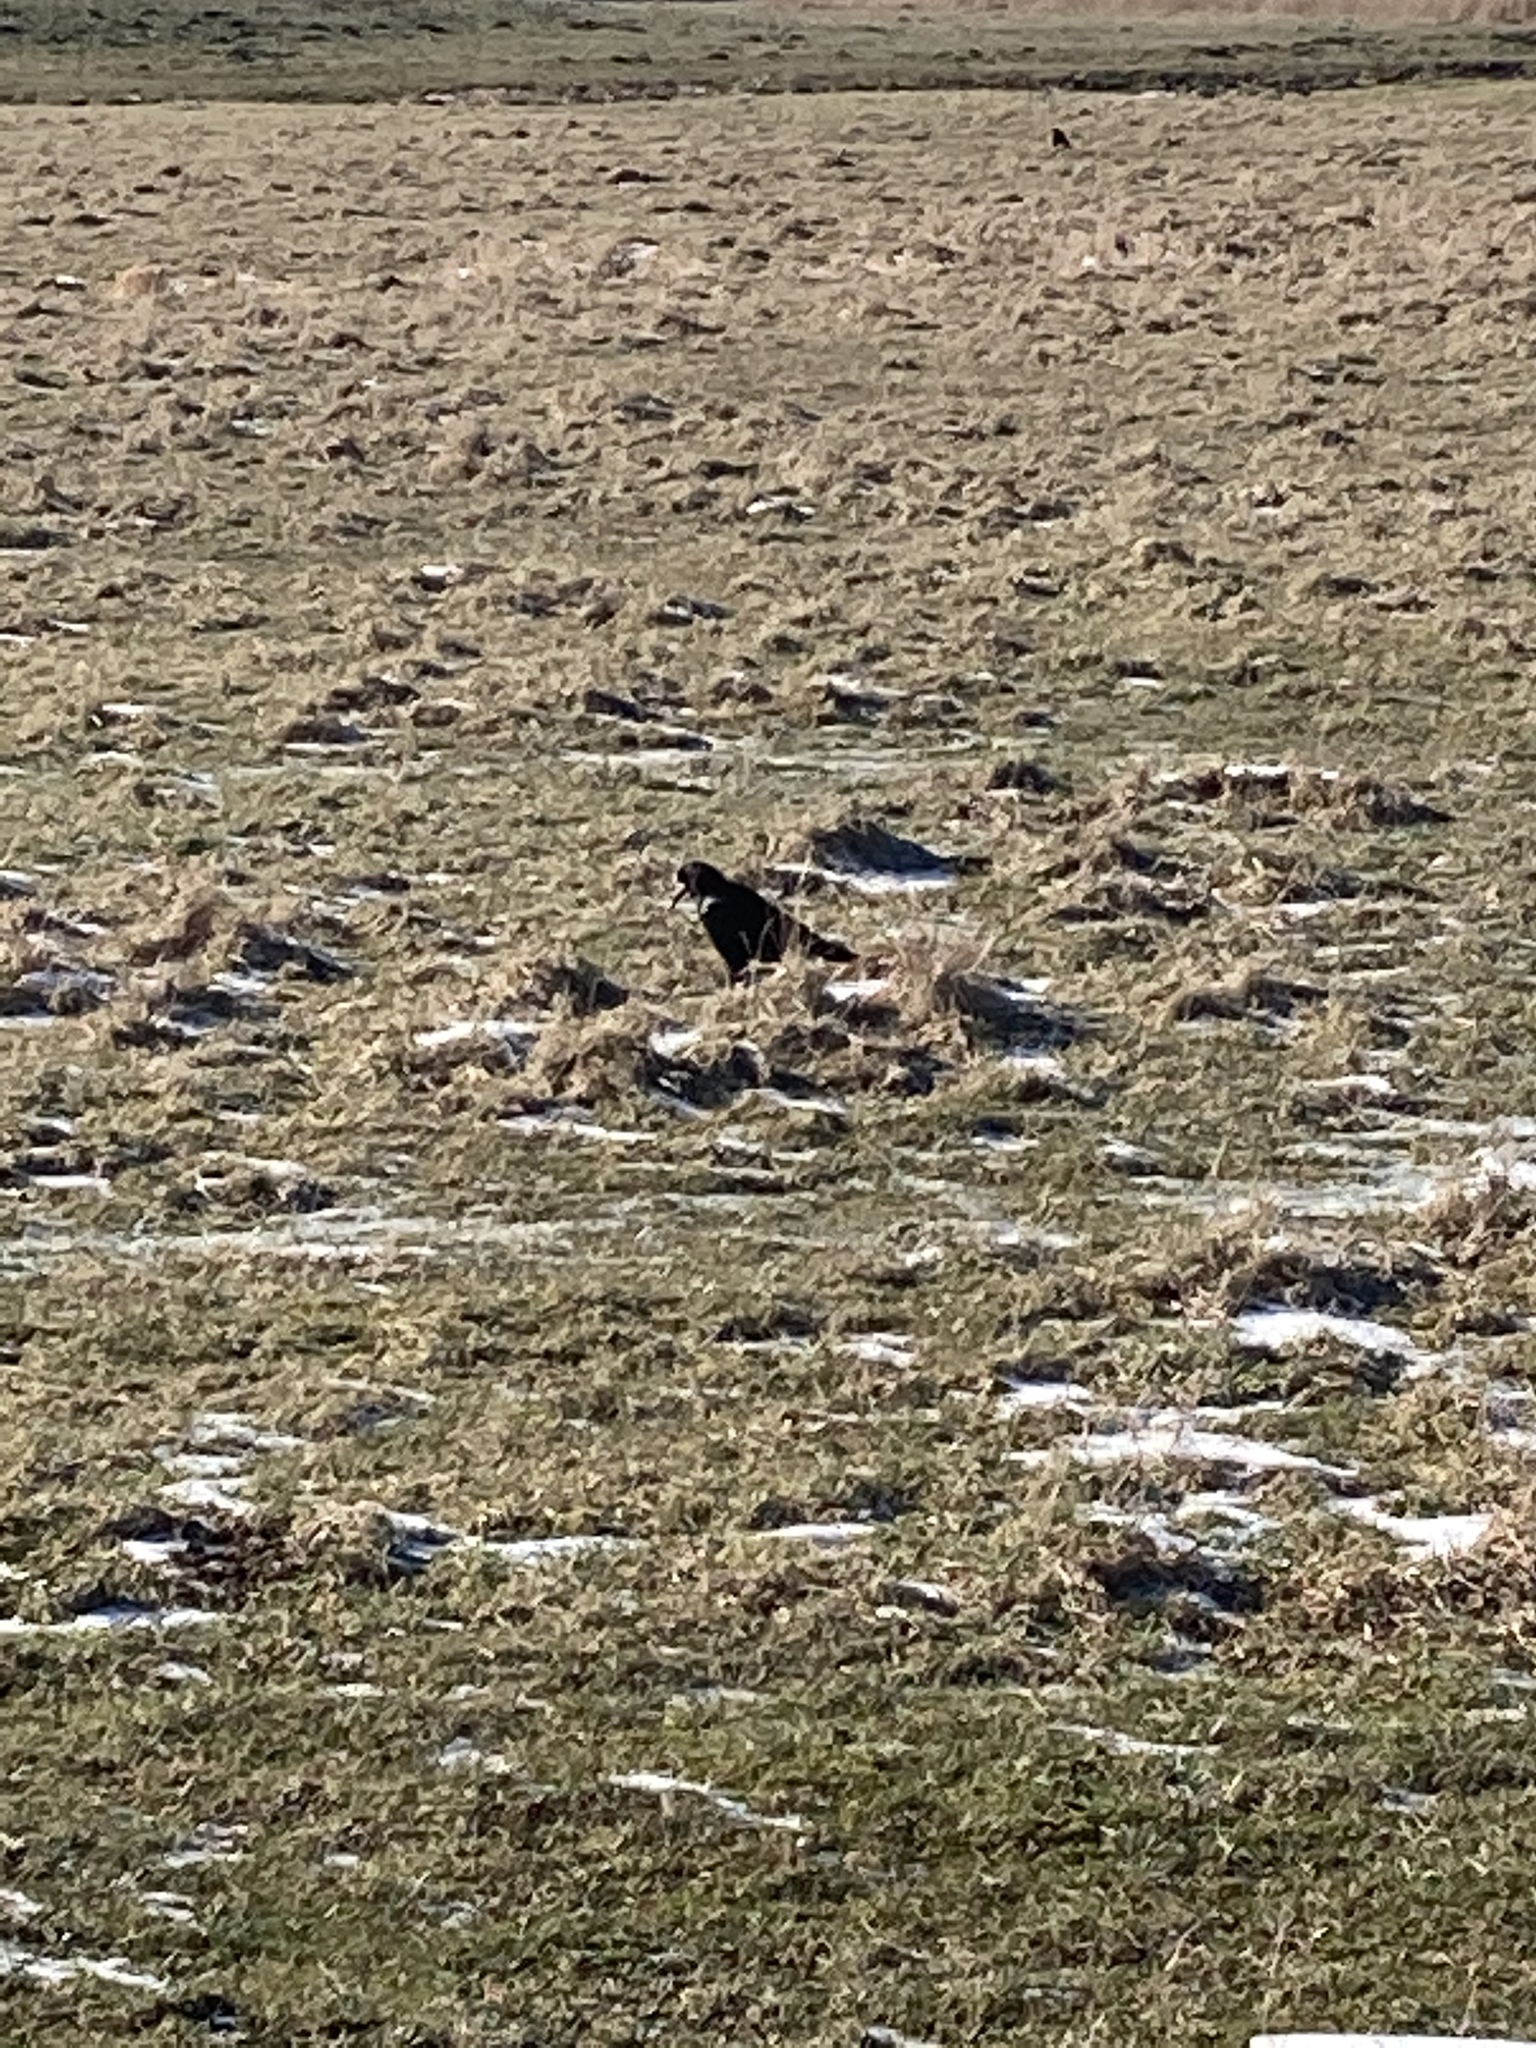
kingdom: Animalia
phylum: Chordata
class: Aves
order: Passeriformes
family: Corvidae
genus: Corvus
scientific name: Corvus frugilegus
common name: Rook
